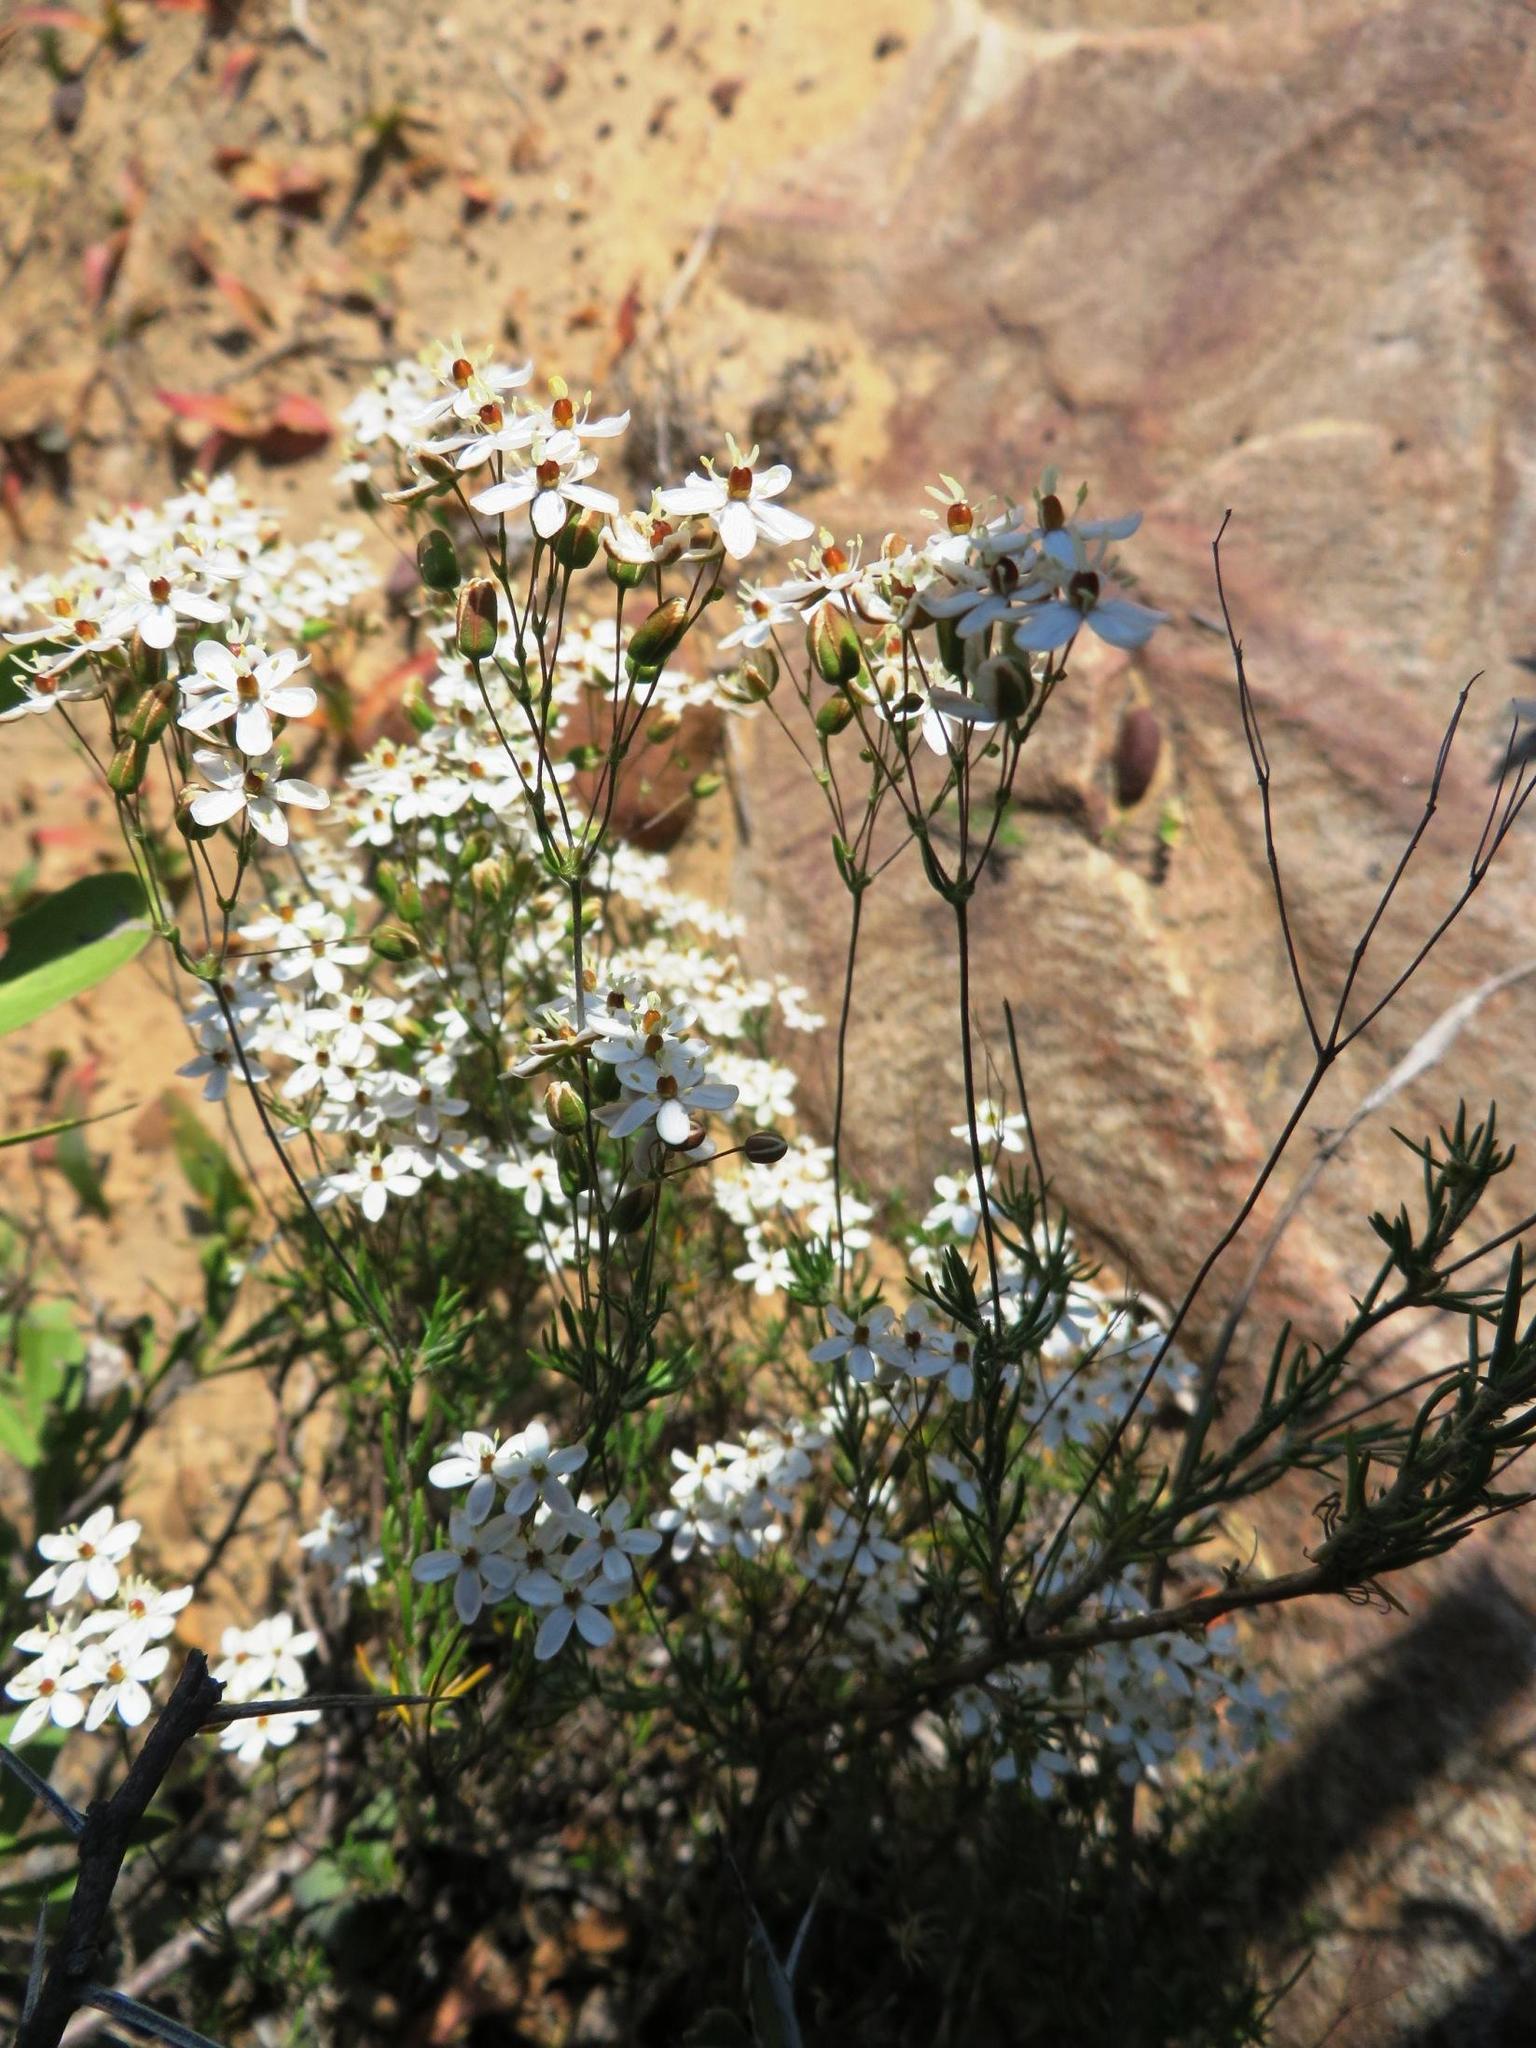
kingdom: Plantae
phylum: Tracheophyta
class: Magnoliopsida
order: Caryophyllales
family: Molluginaceae
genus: Pharnaceum
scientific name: Pharnaceum aurantium
